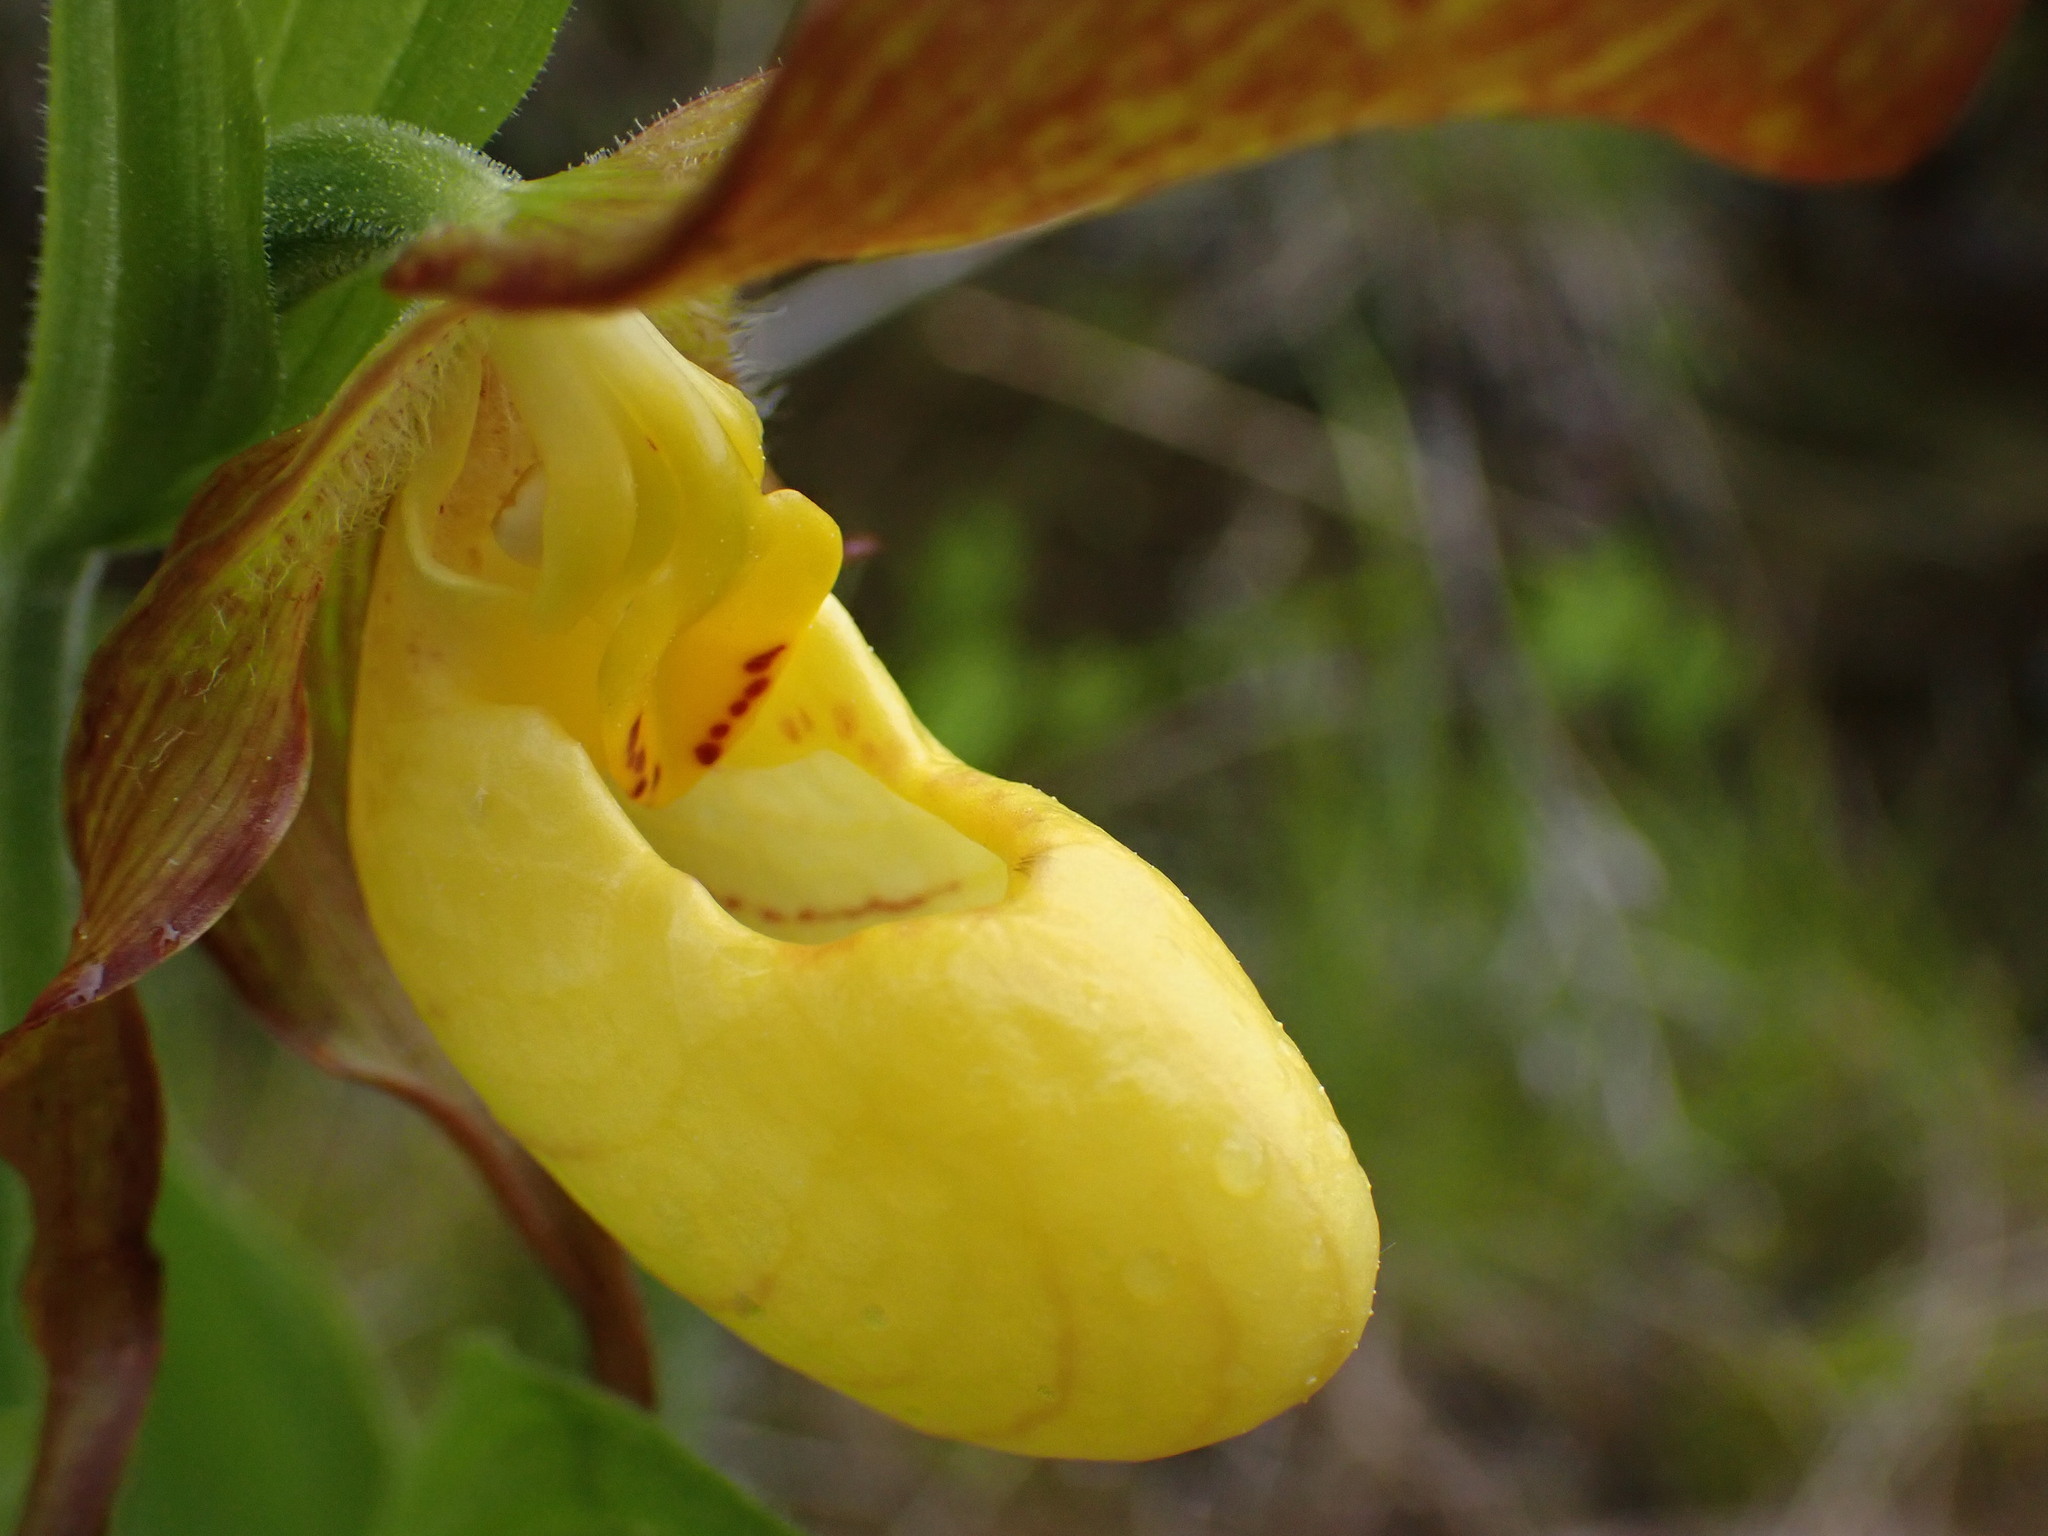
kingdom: Plantae
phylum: Tracheophyta
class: Liliopsida
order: Asparagales
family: Orchidaceae
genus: Cypripedium
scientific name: Cypripedium parviflorum
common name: American yellow lady's-slipper
